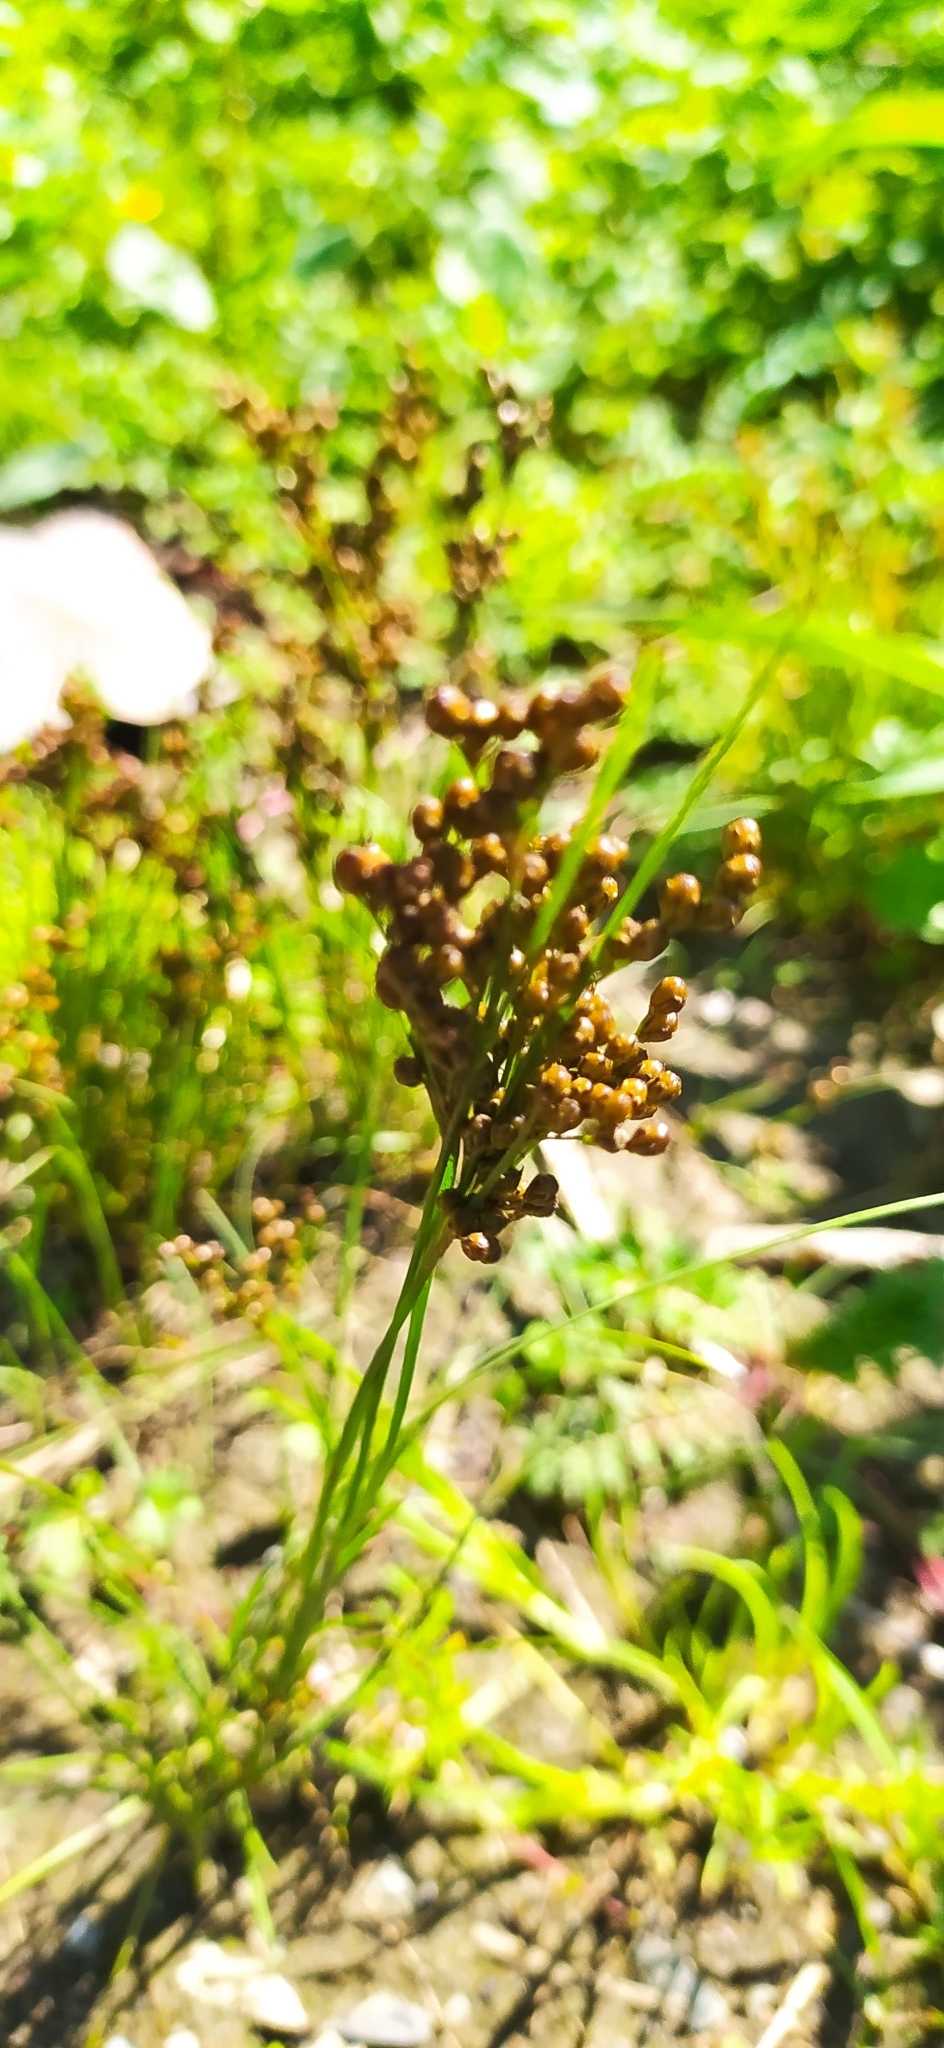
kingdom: Plantae
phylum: Tracheophyta
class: Liliopsida
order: Poales
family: Juncaceae
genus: Juncus
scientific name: Juncus compressus
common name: Round-fruited rush
